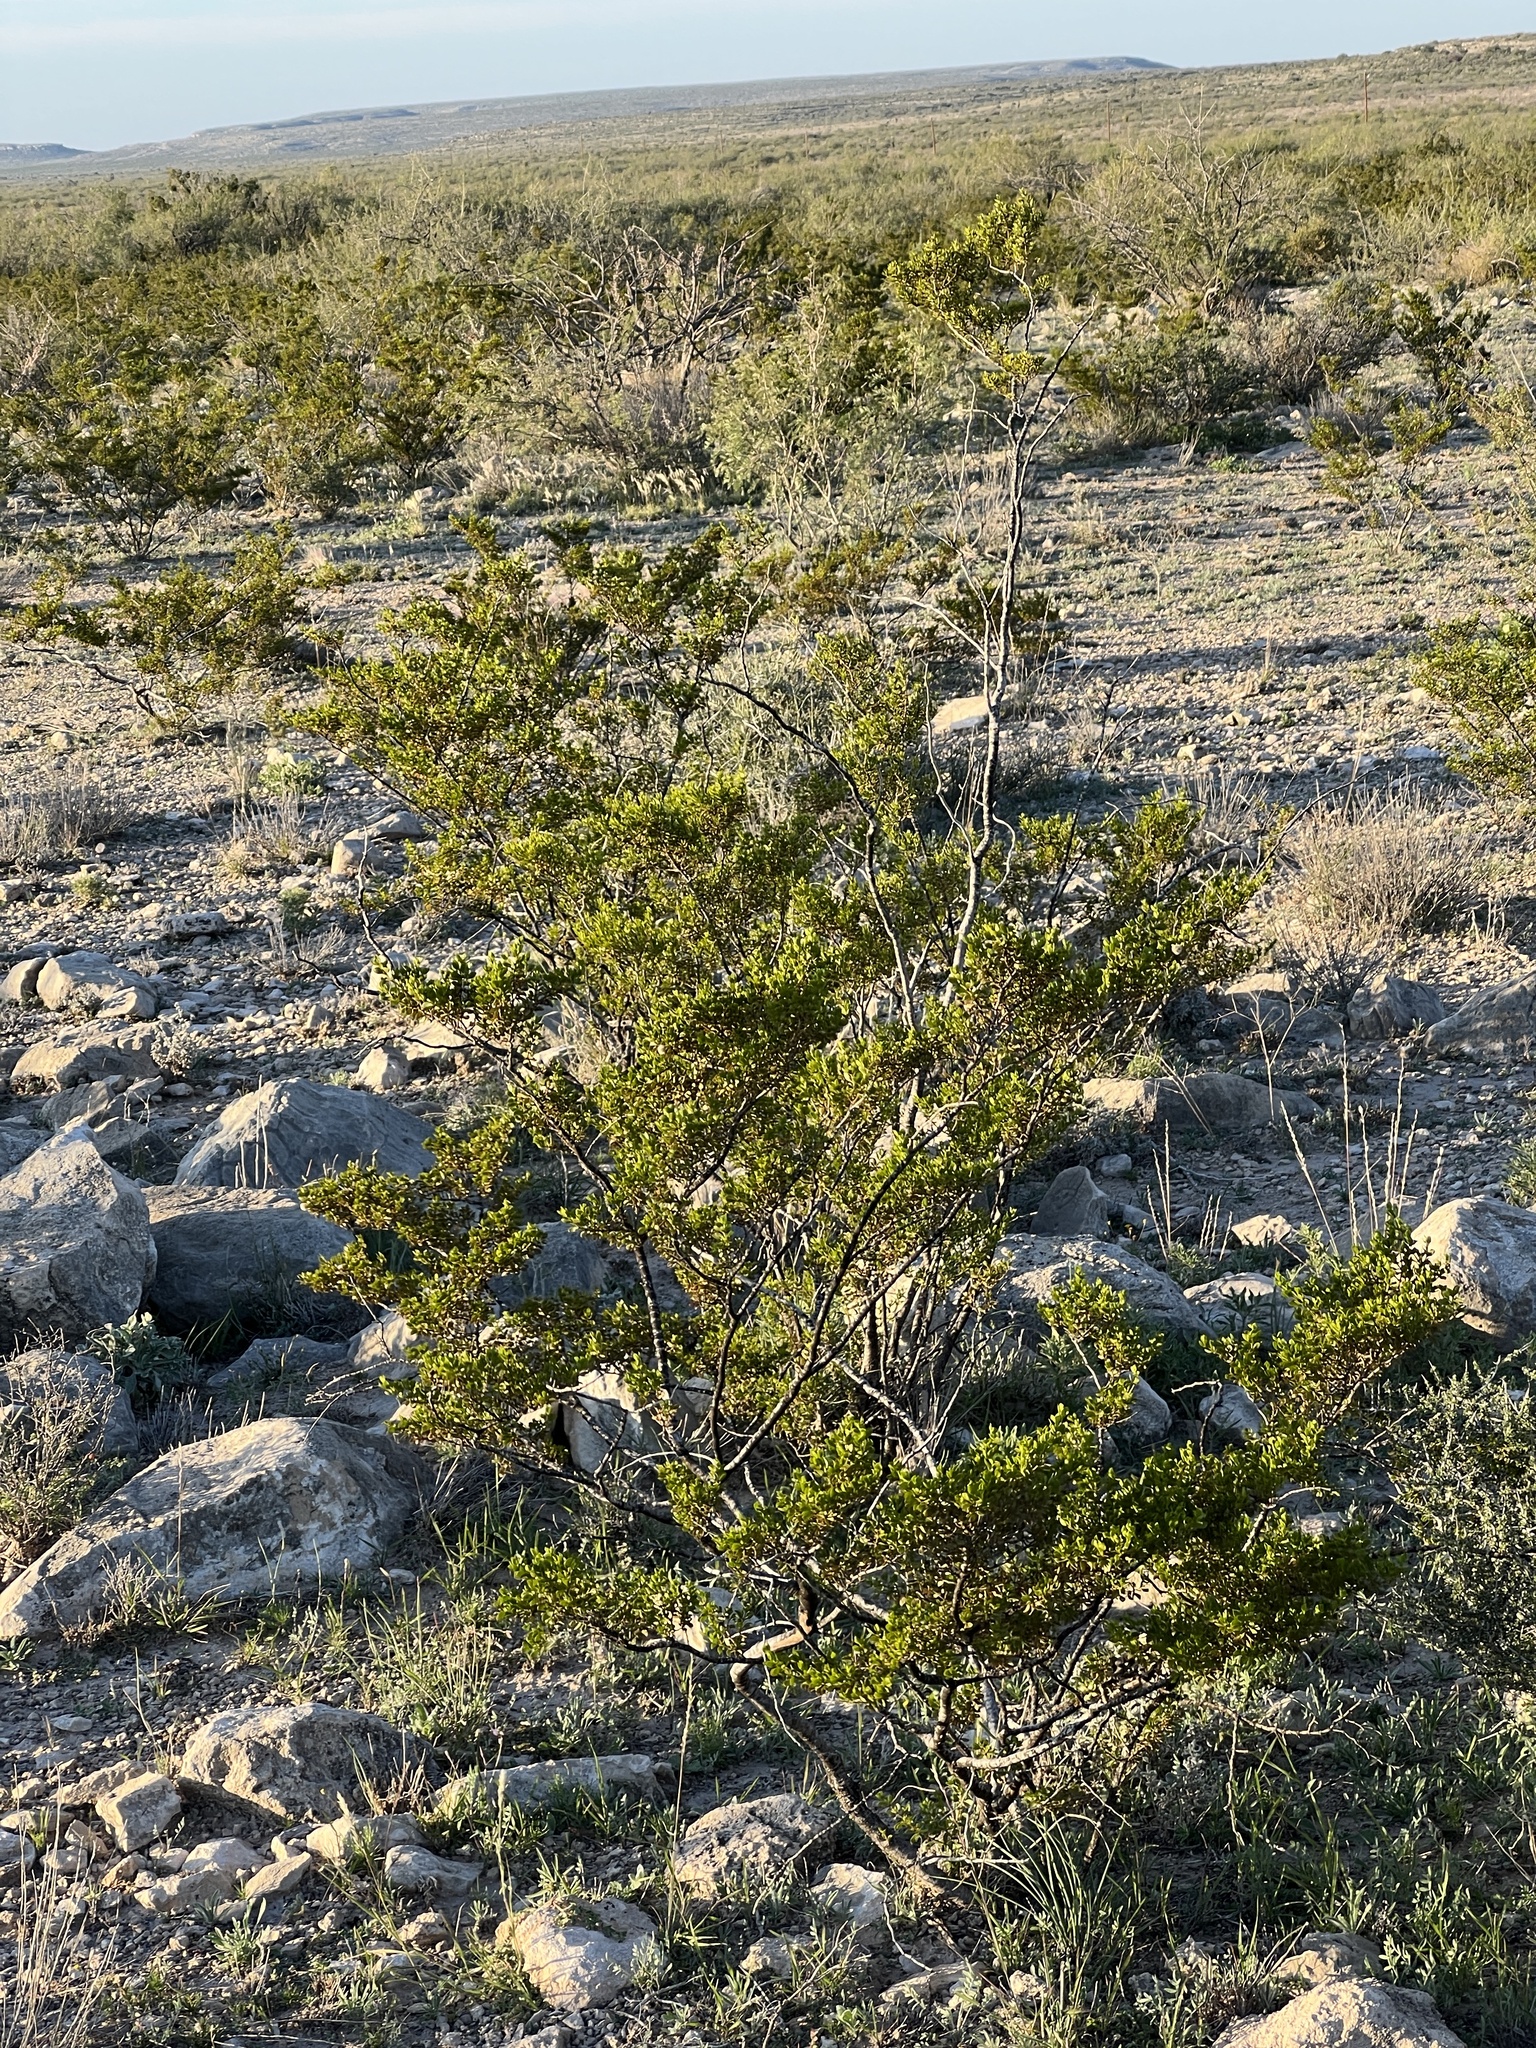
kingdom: Plantae
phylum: Tracheophyta
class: Magnoliopsida
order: Zygophyllales
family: Zygophyllaceae
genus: Larrea
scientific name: Larrea tridentata
